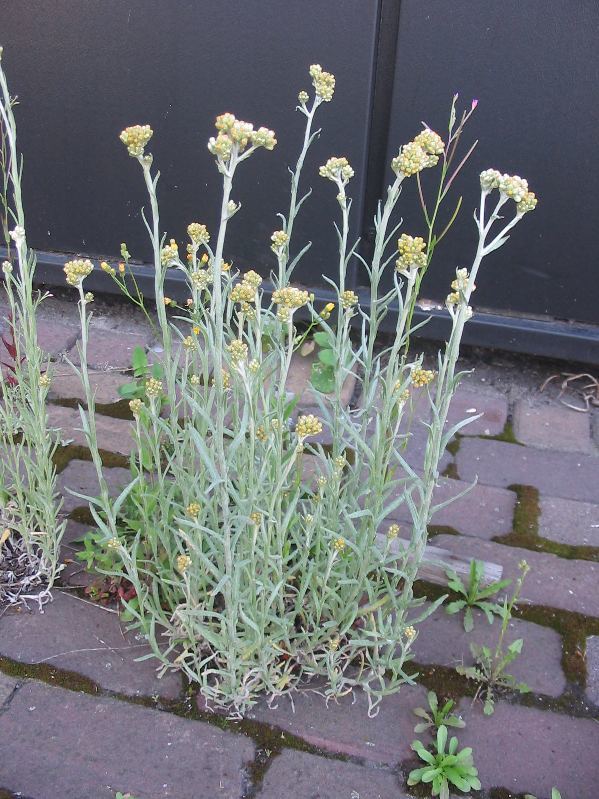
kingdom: Plantae
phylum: Tracheophyta
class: Magnoliopsida
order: Asterales
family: Asteraceae
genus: Helichrysum
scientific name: Helichrysum luteoalbum
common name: Daisy
